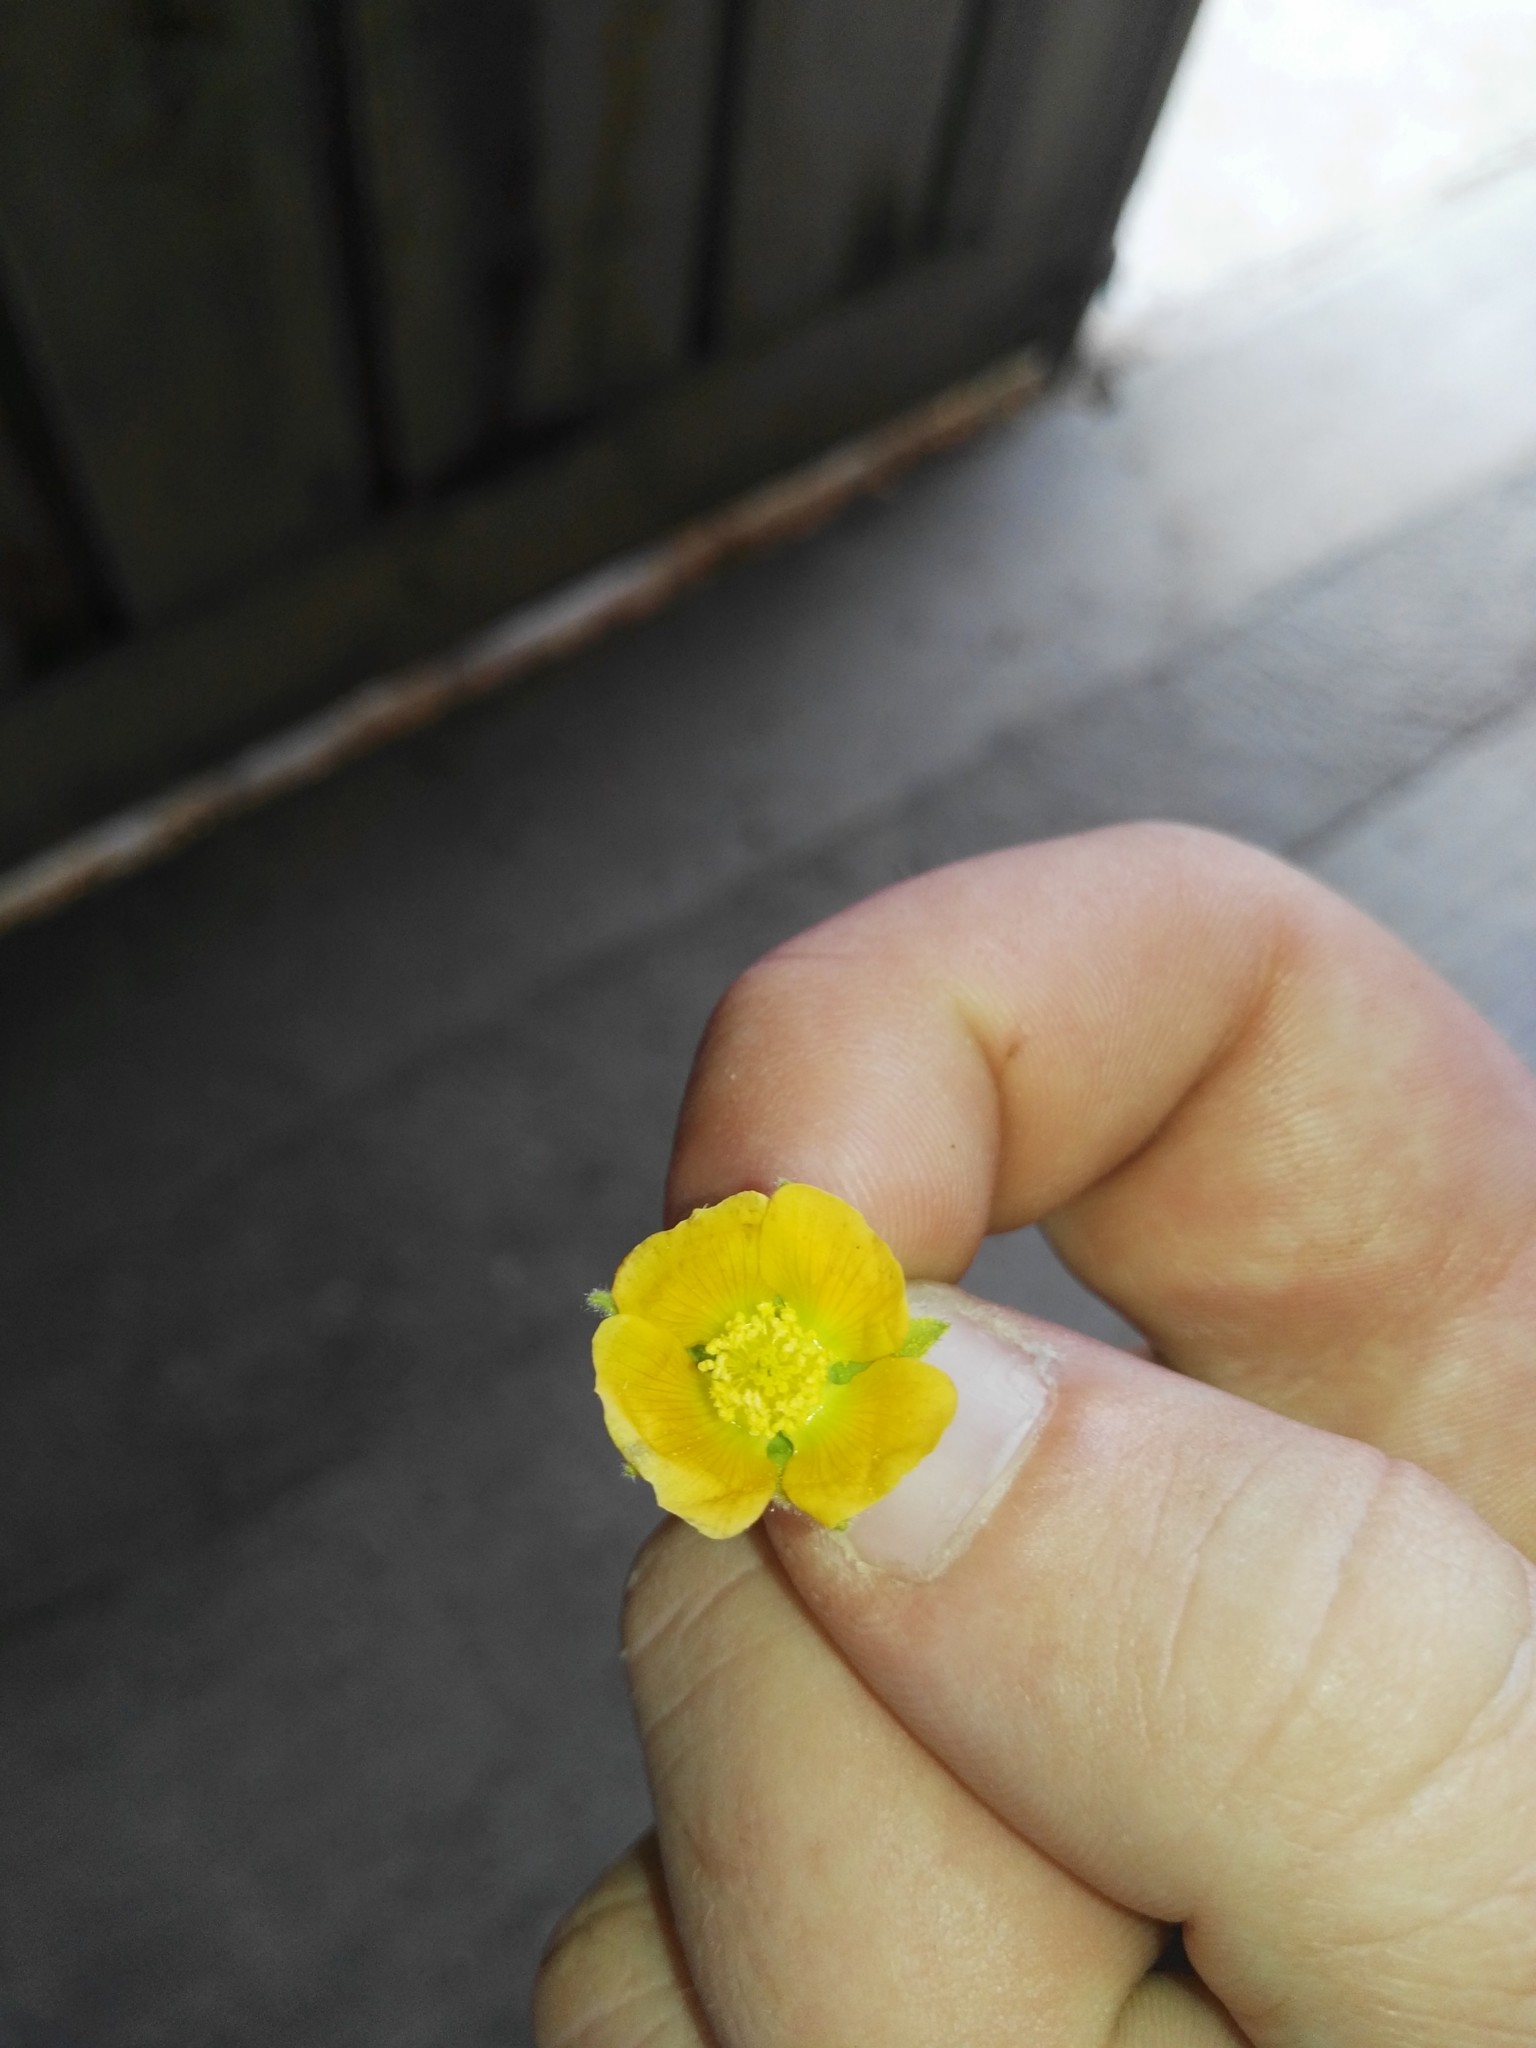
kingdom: Plantae
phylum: Tracheophyta
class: Magnoliopsida
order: Malvales
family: Malvaceae
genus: Abutilon
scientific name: Abutilon theophrasti
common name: Velvetleaf
